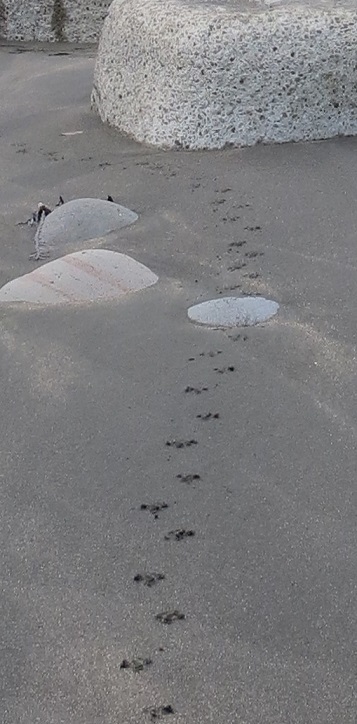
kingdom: Animalia
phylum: Chordata
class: Aves
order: Sphenisciformes
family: Spheniscidae
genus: Eudyptula
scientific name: Eudyptula minor
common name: Little penguin
